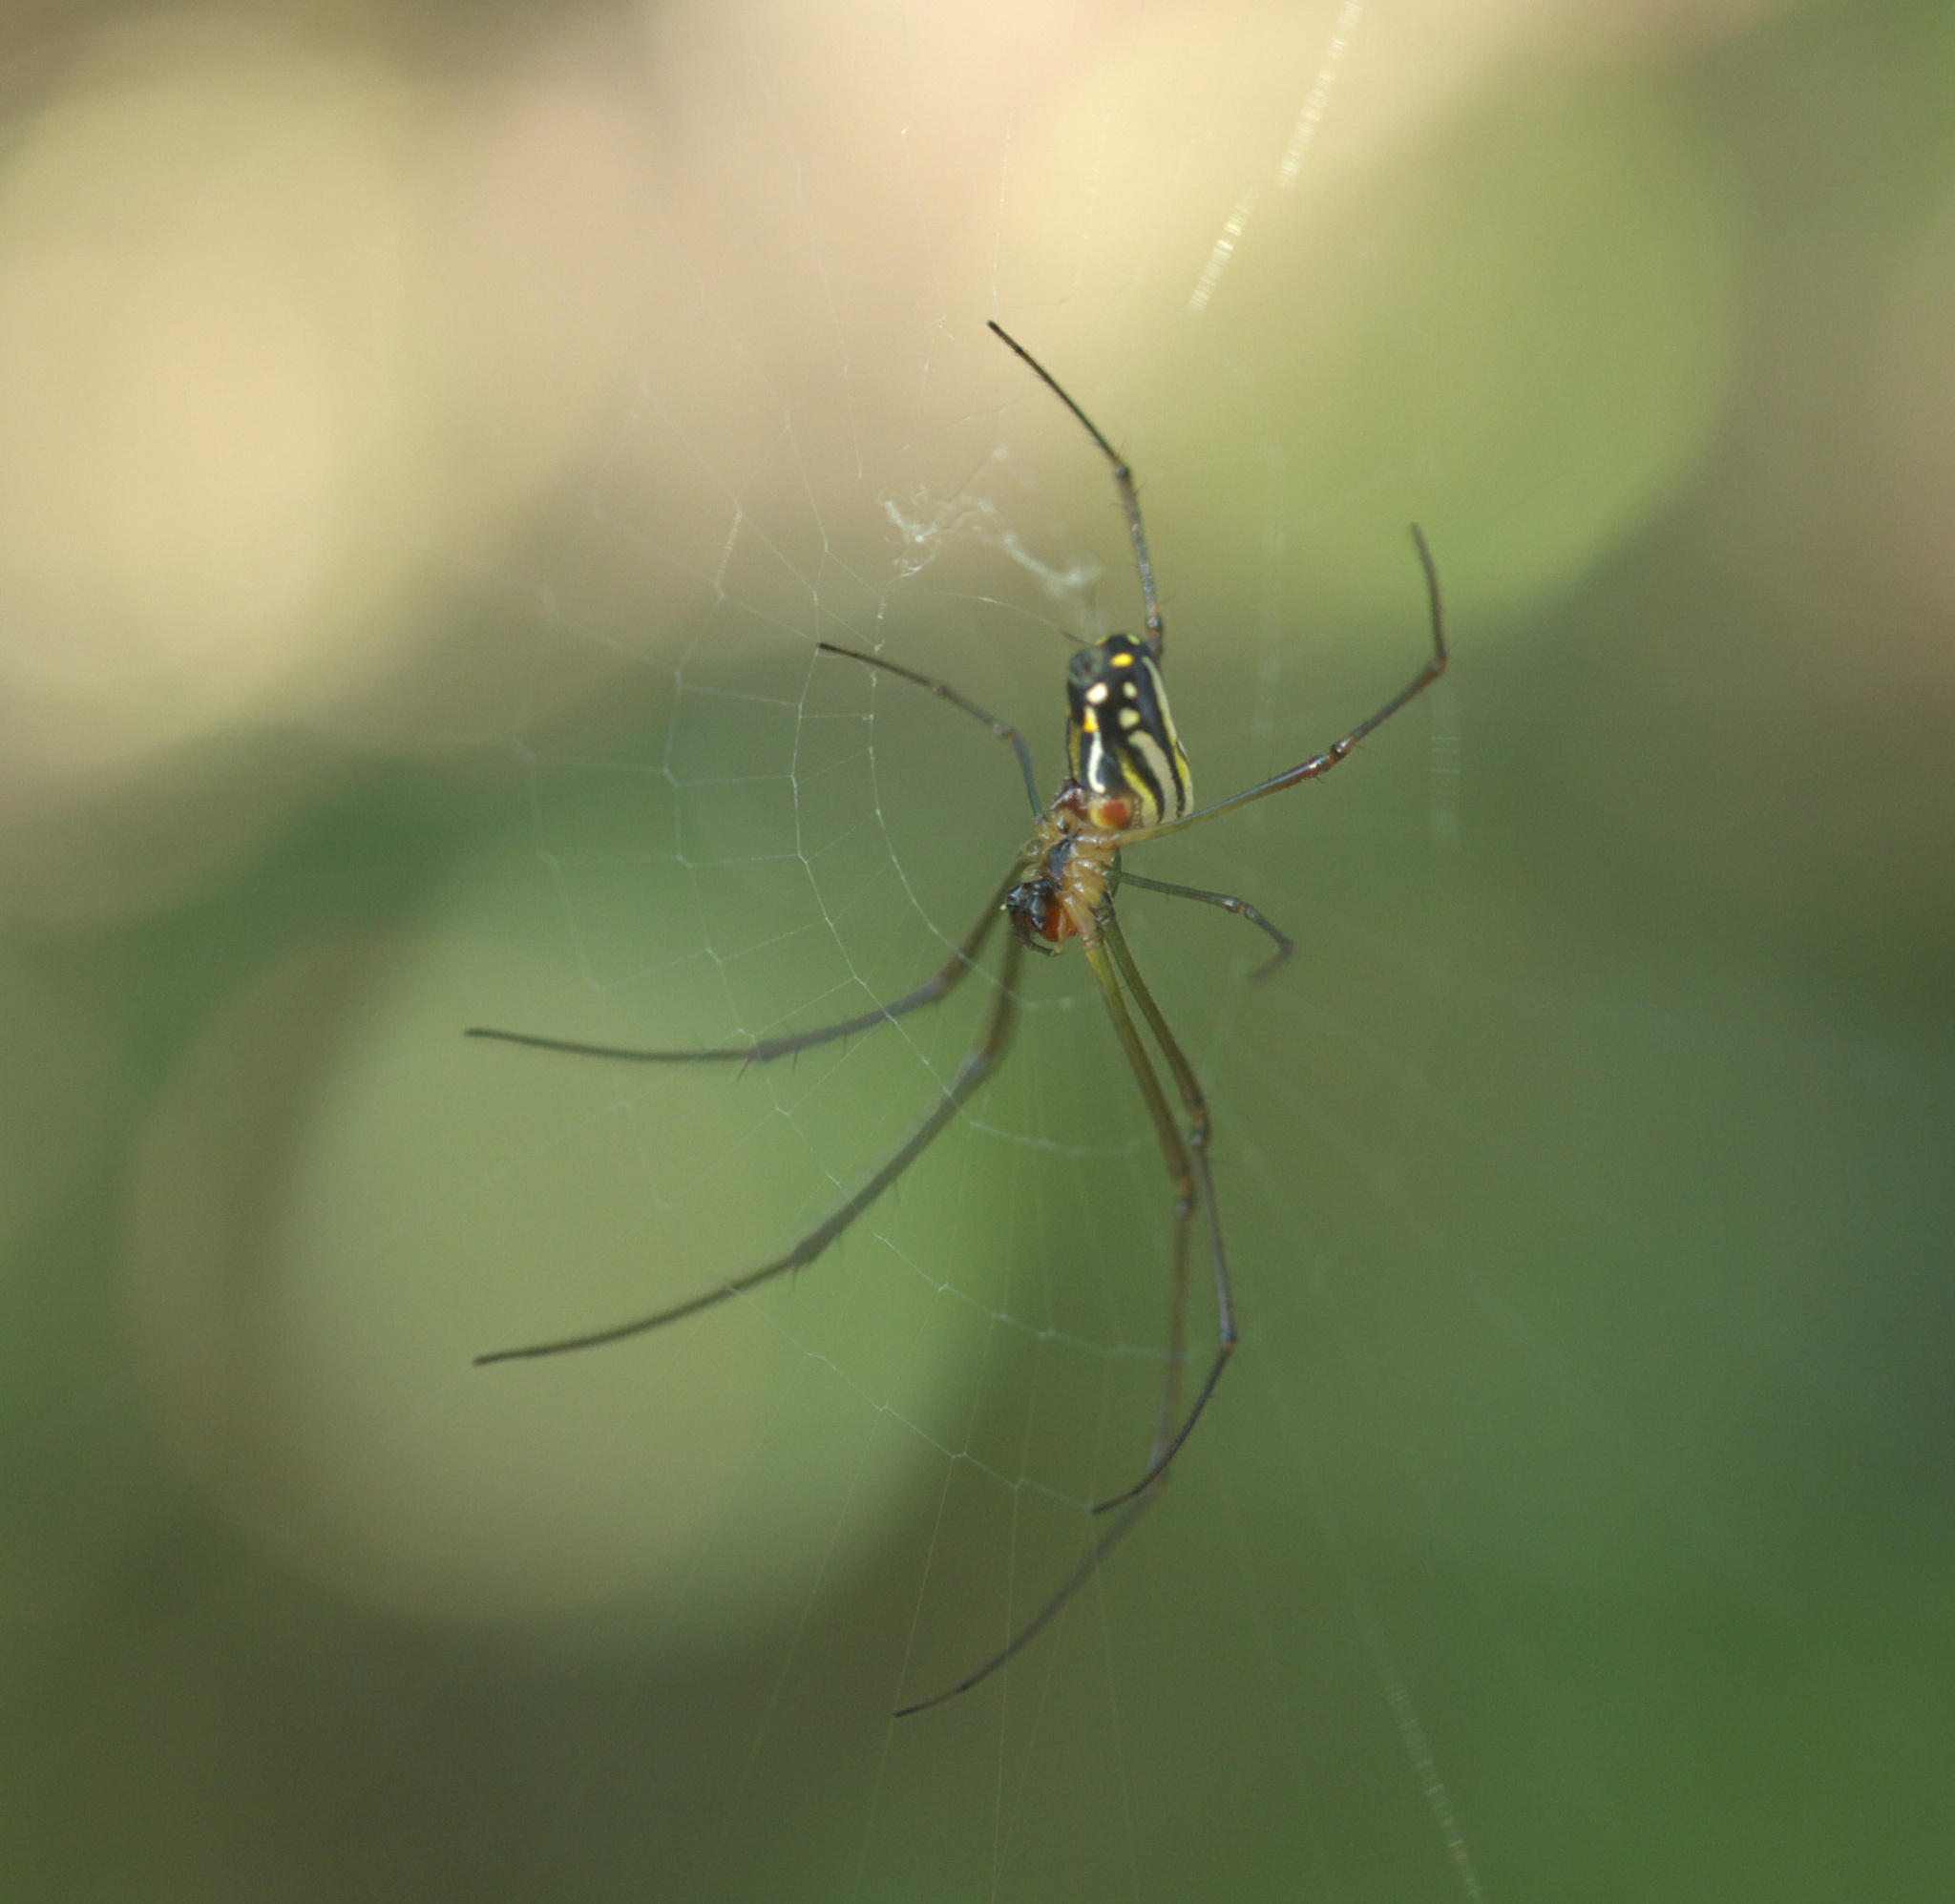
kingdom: Animalia
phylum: Arthropoda
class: Arachnida
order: Araneae
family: Tetragnathidae
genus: Leucauge
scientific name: Leucauge argyra
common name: Longjawed orb weavers
